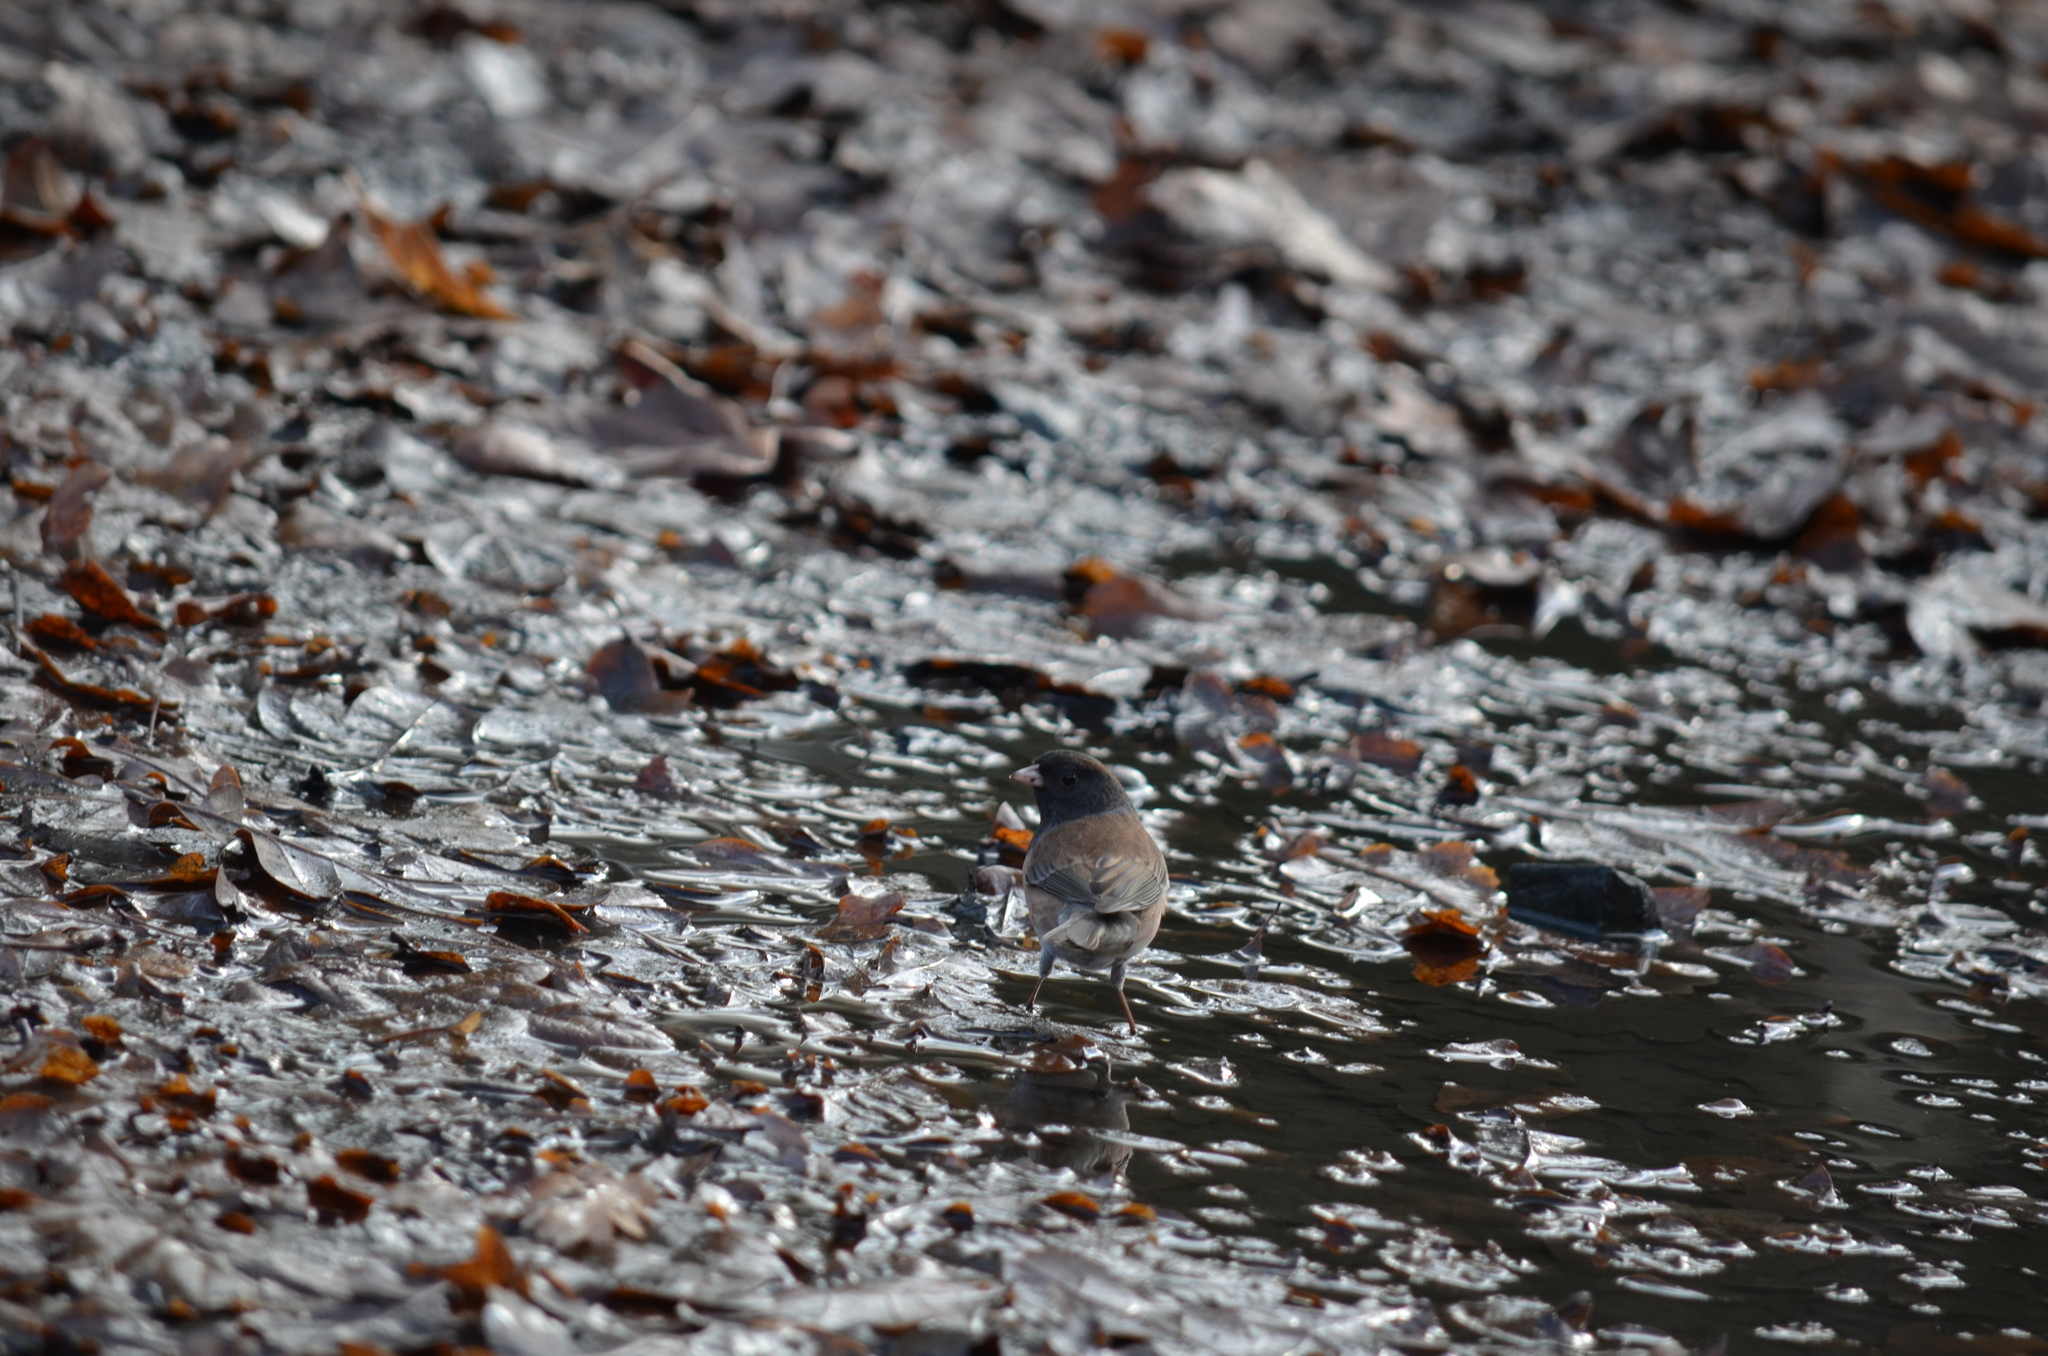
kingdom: Animalia
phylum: Chordata
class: Aves
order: Passeriformes
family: Passerellidae
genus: Junco
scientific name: Junco hyemalis
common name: Dark-eyed junco
